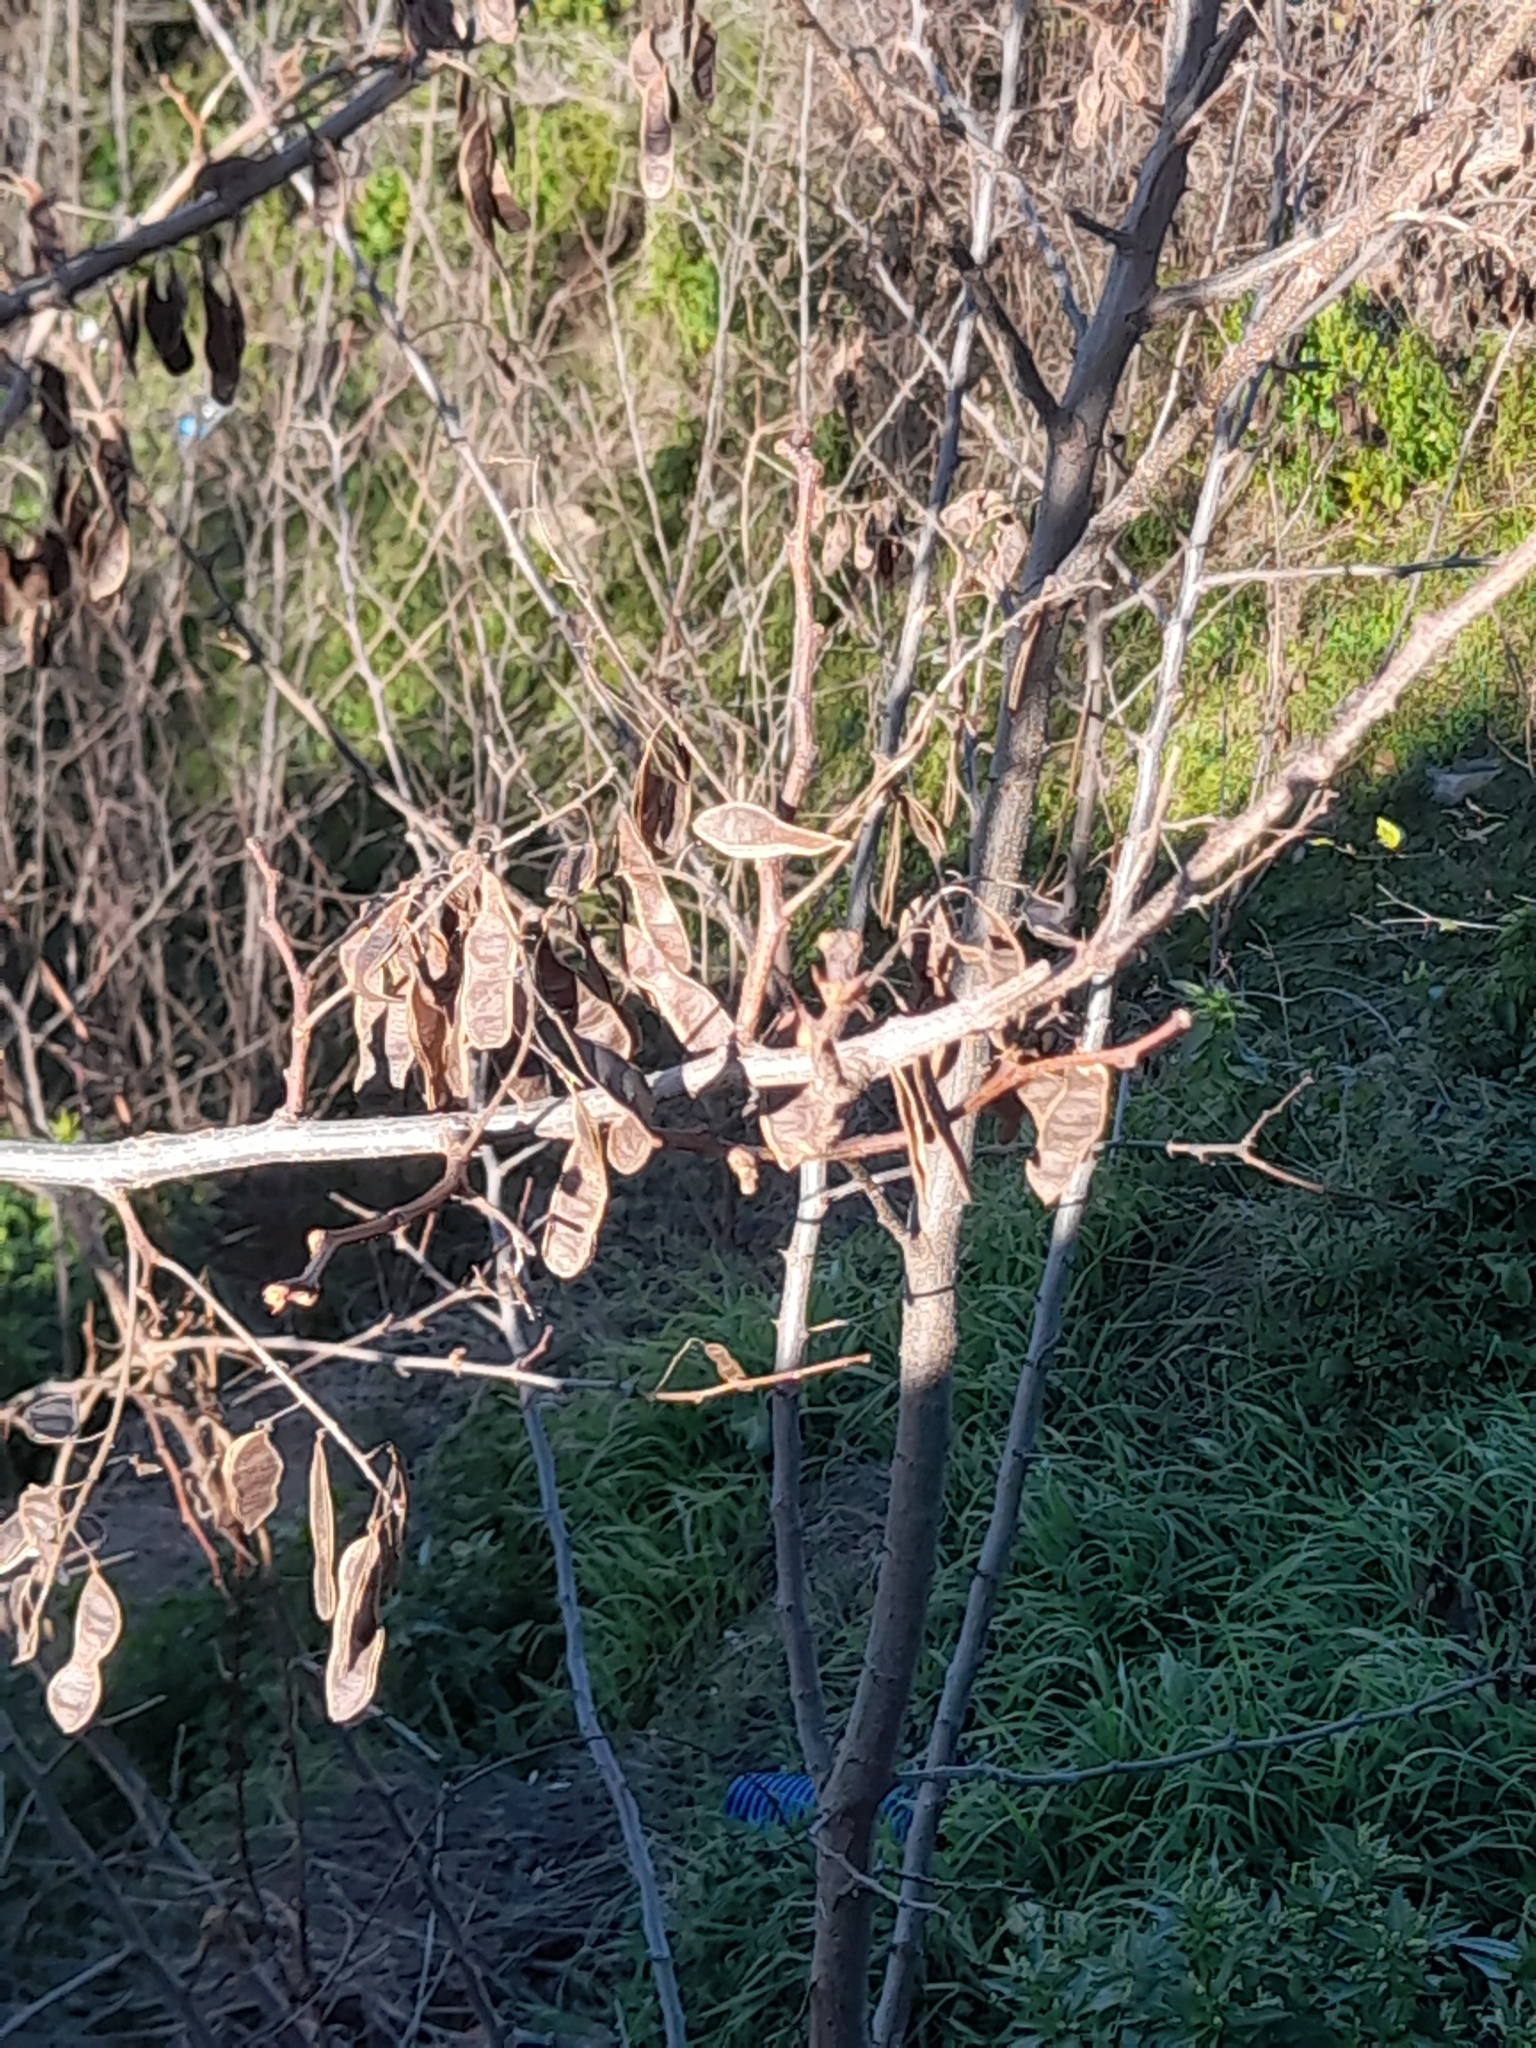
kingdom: Plantae
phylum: Tracheophyta
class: Magnoliopsida
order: Fabales
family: Fabaceae
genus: Robinia
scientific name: Robinia pseudoacacia
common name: Black locust
